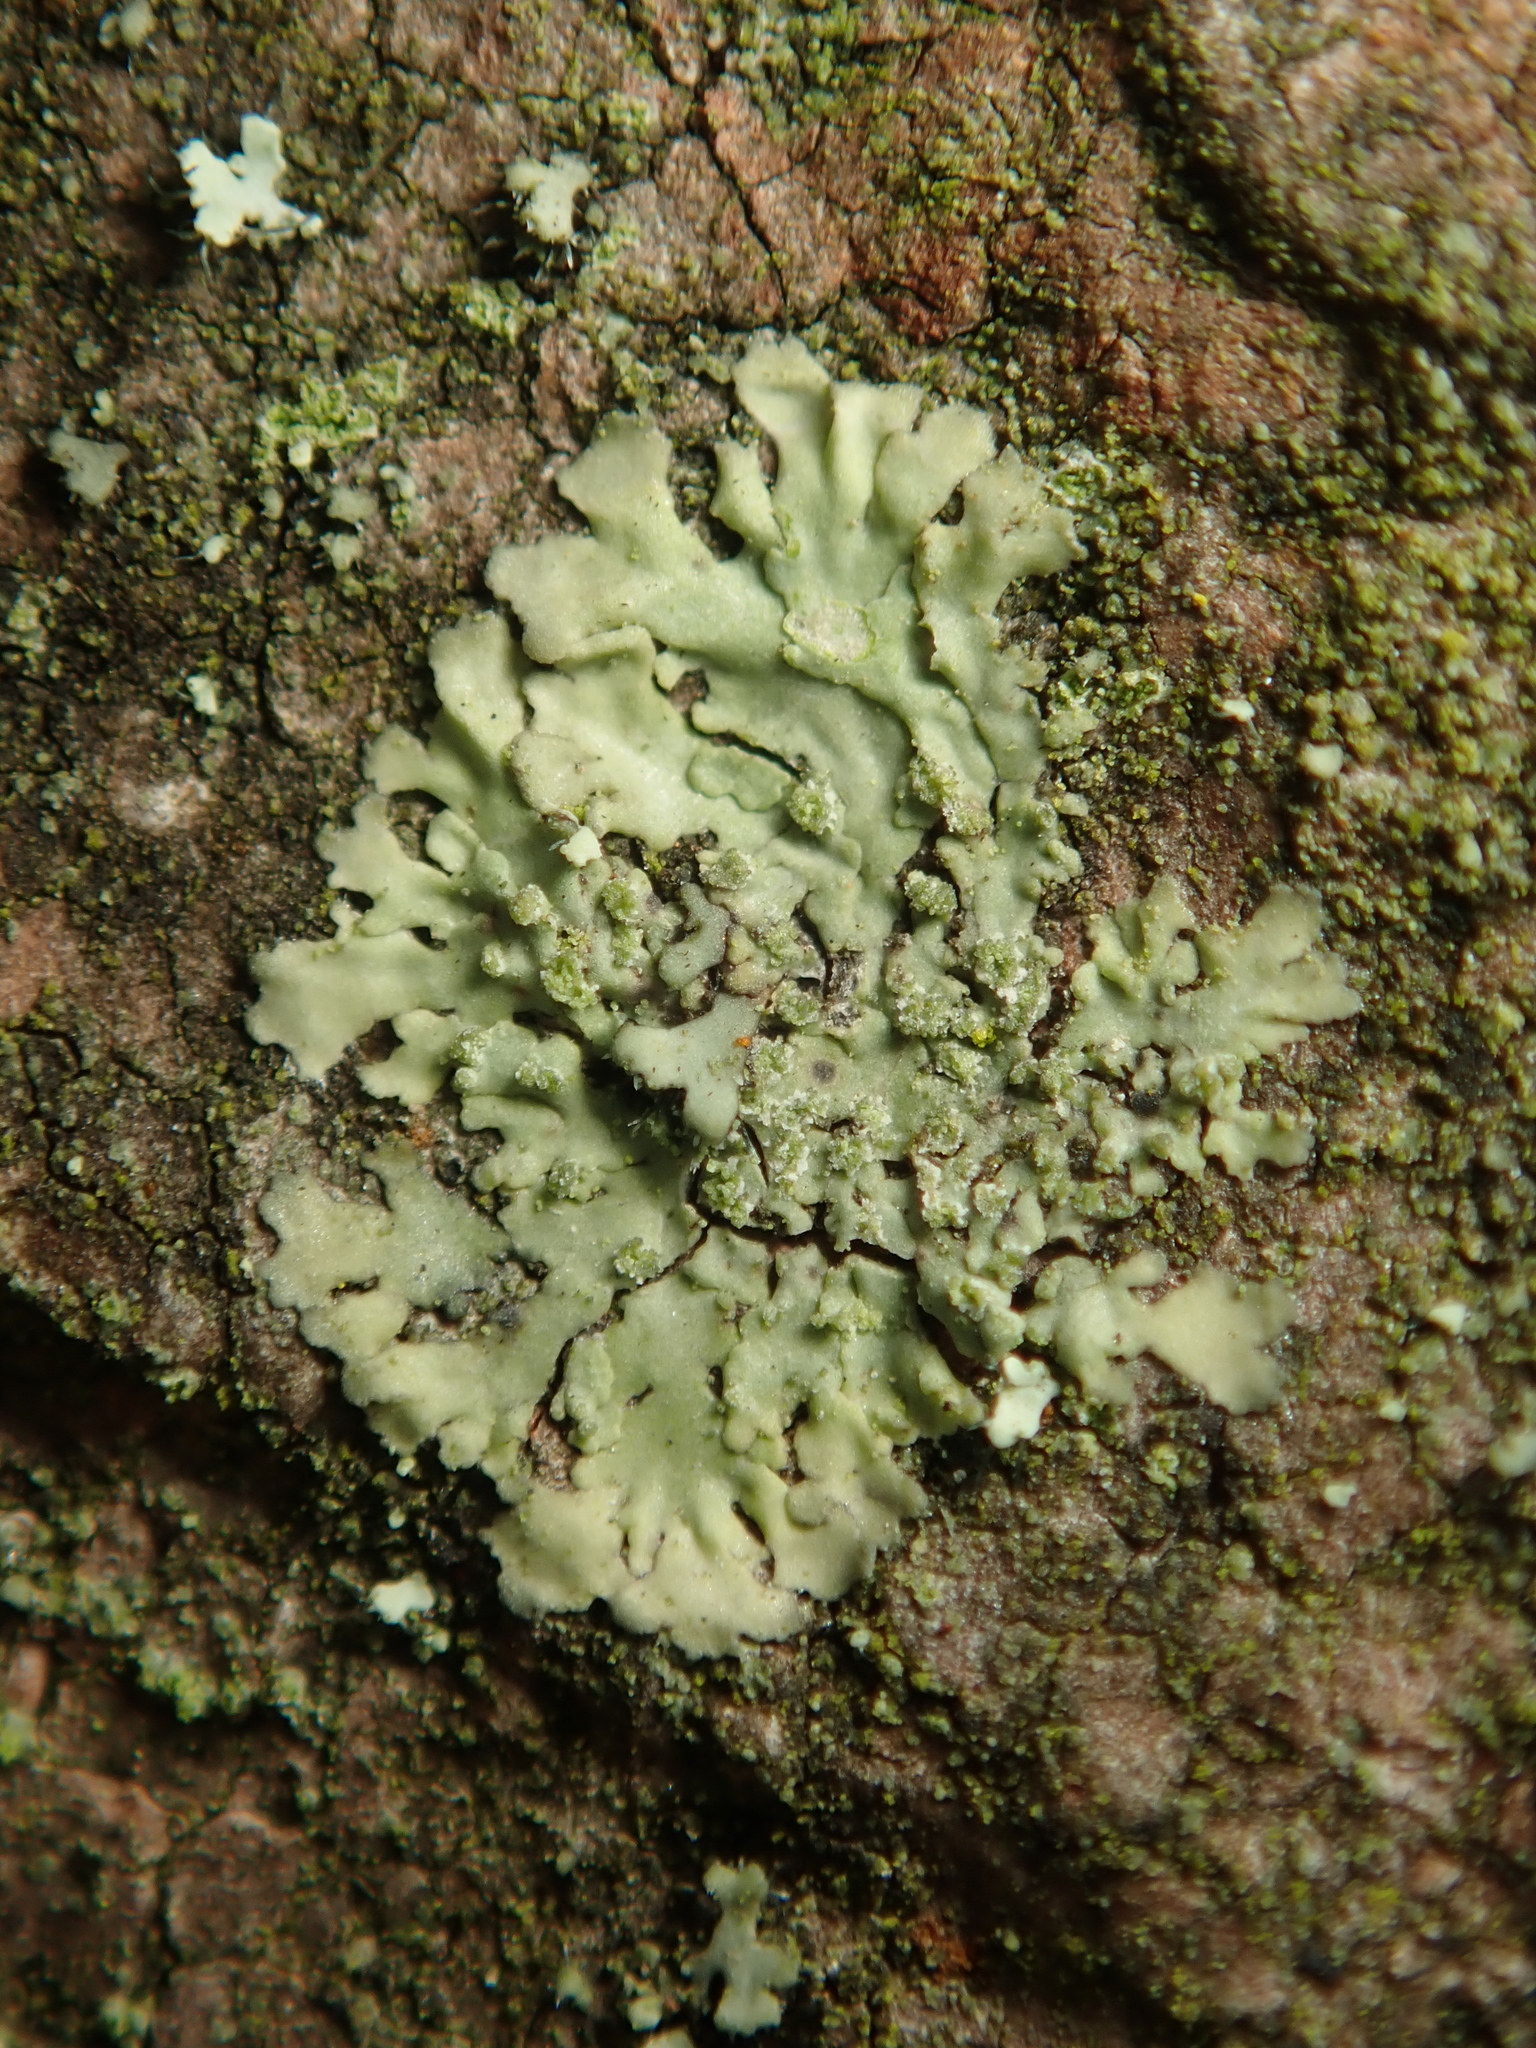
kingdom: Fungi
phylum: Ascomycota
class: Lecanoromycetes
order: Caliciales
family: Physciaceae
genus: Hyperphyscia
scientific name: Hyperphyscia adglutinata
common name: Grainy shadow-crust lichen
